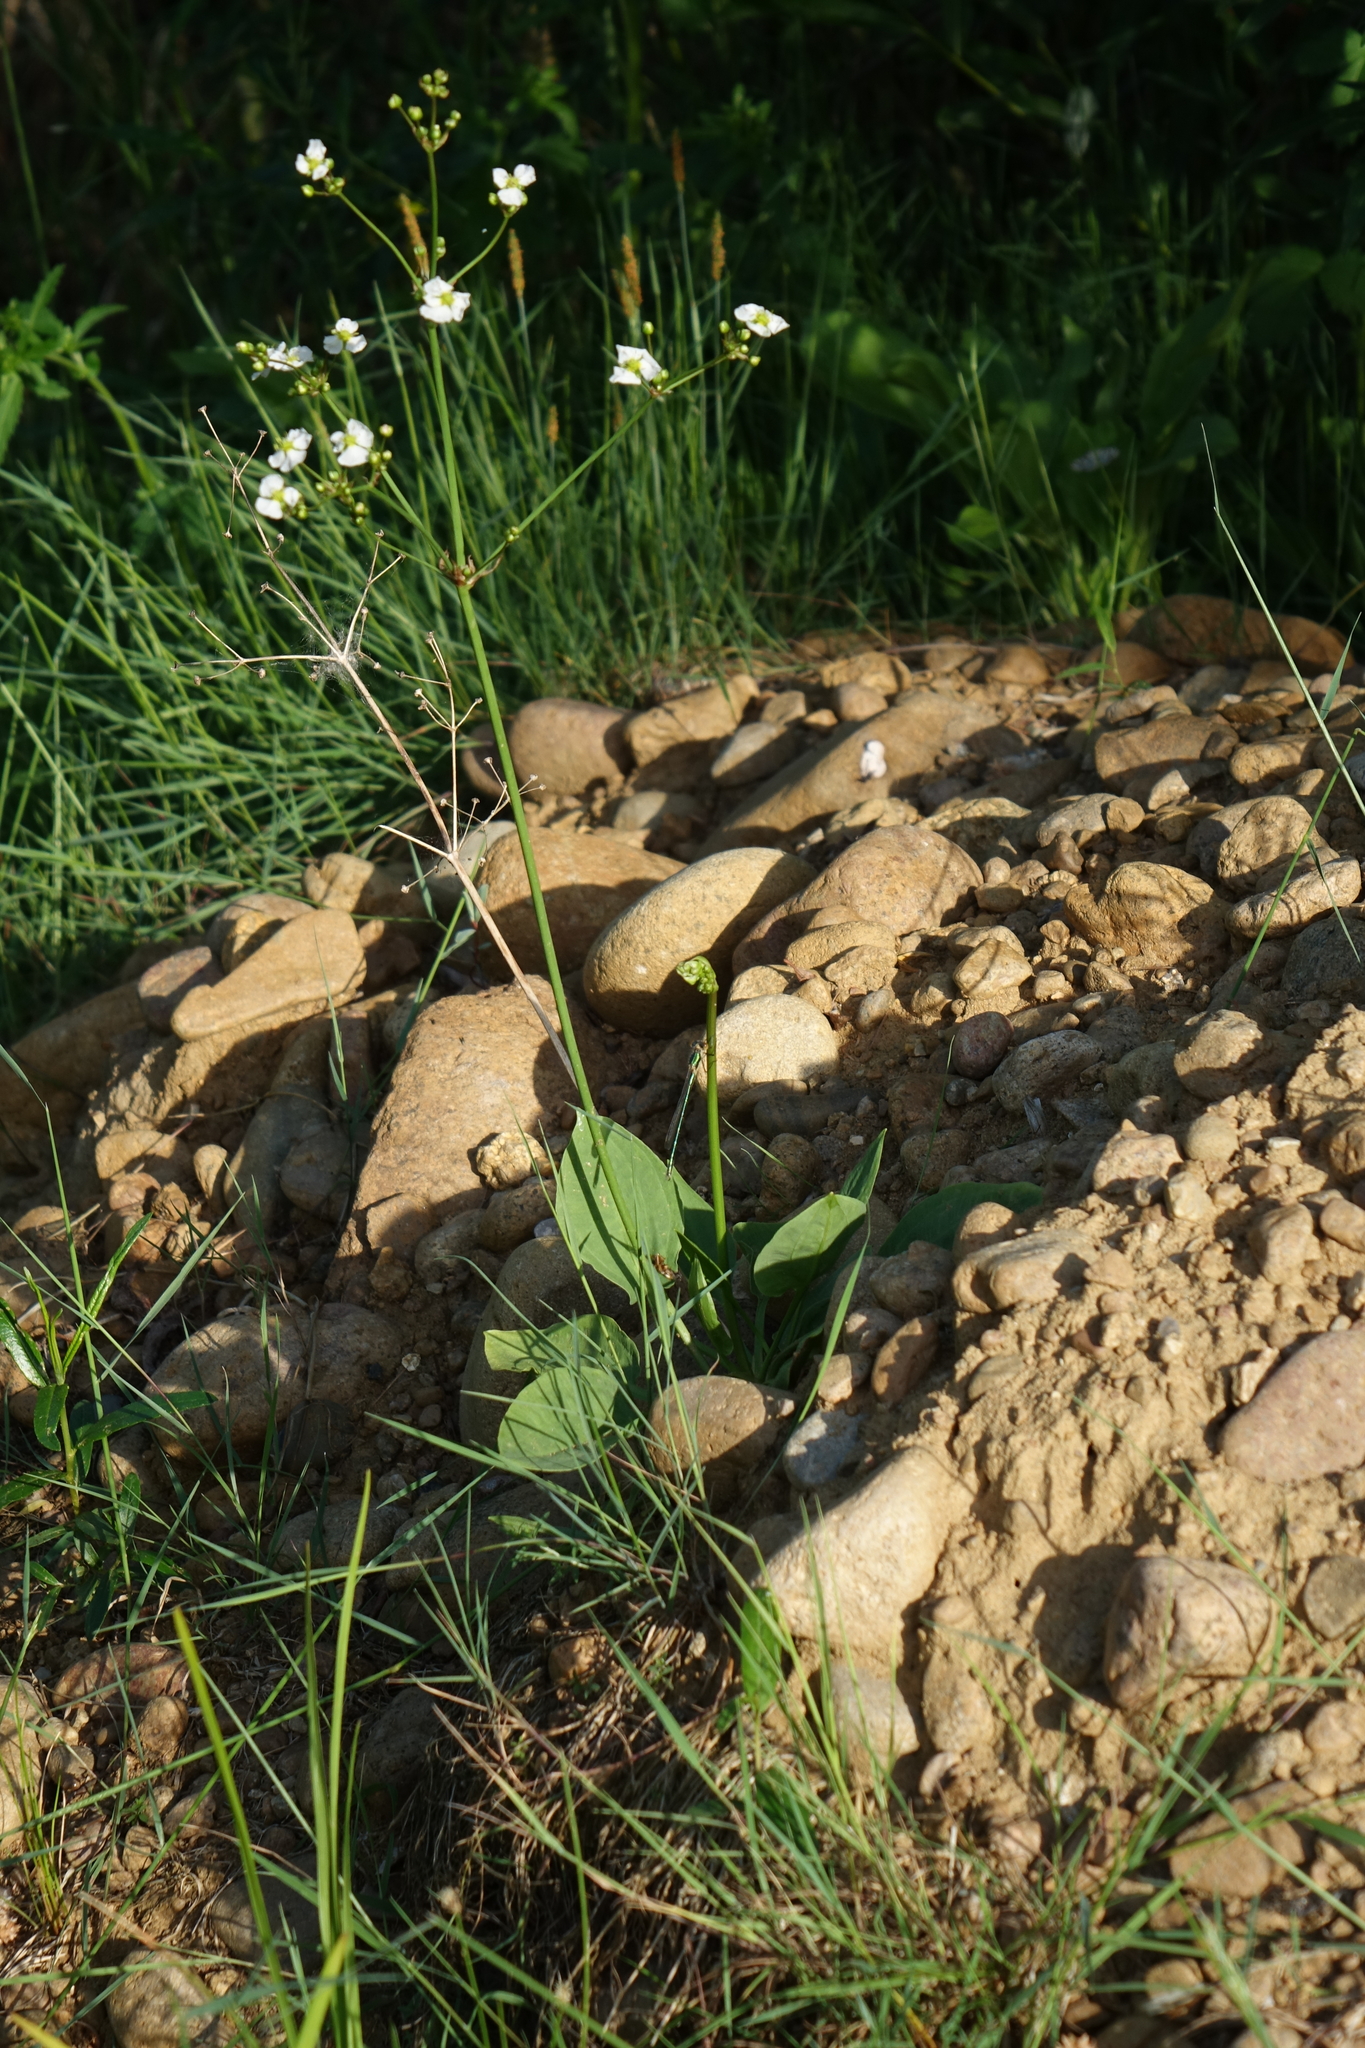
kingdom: Plantae
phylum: Tracheophyta
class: Liliopsida
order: Alismatales
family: Alismataceae
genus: Alisma
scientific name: Alisma plantago-aquatica
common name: Water-plantain
